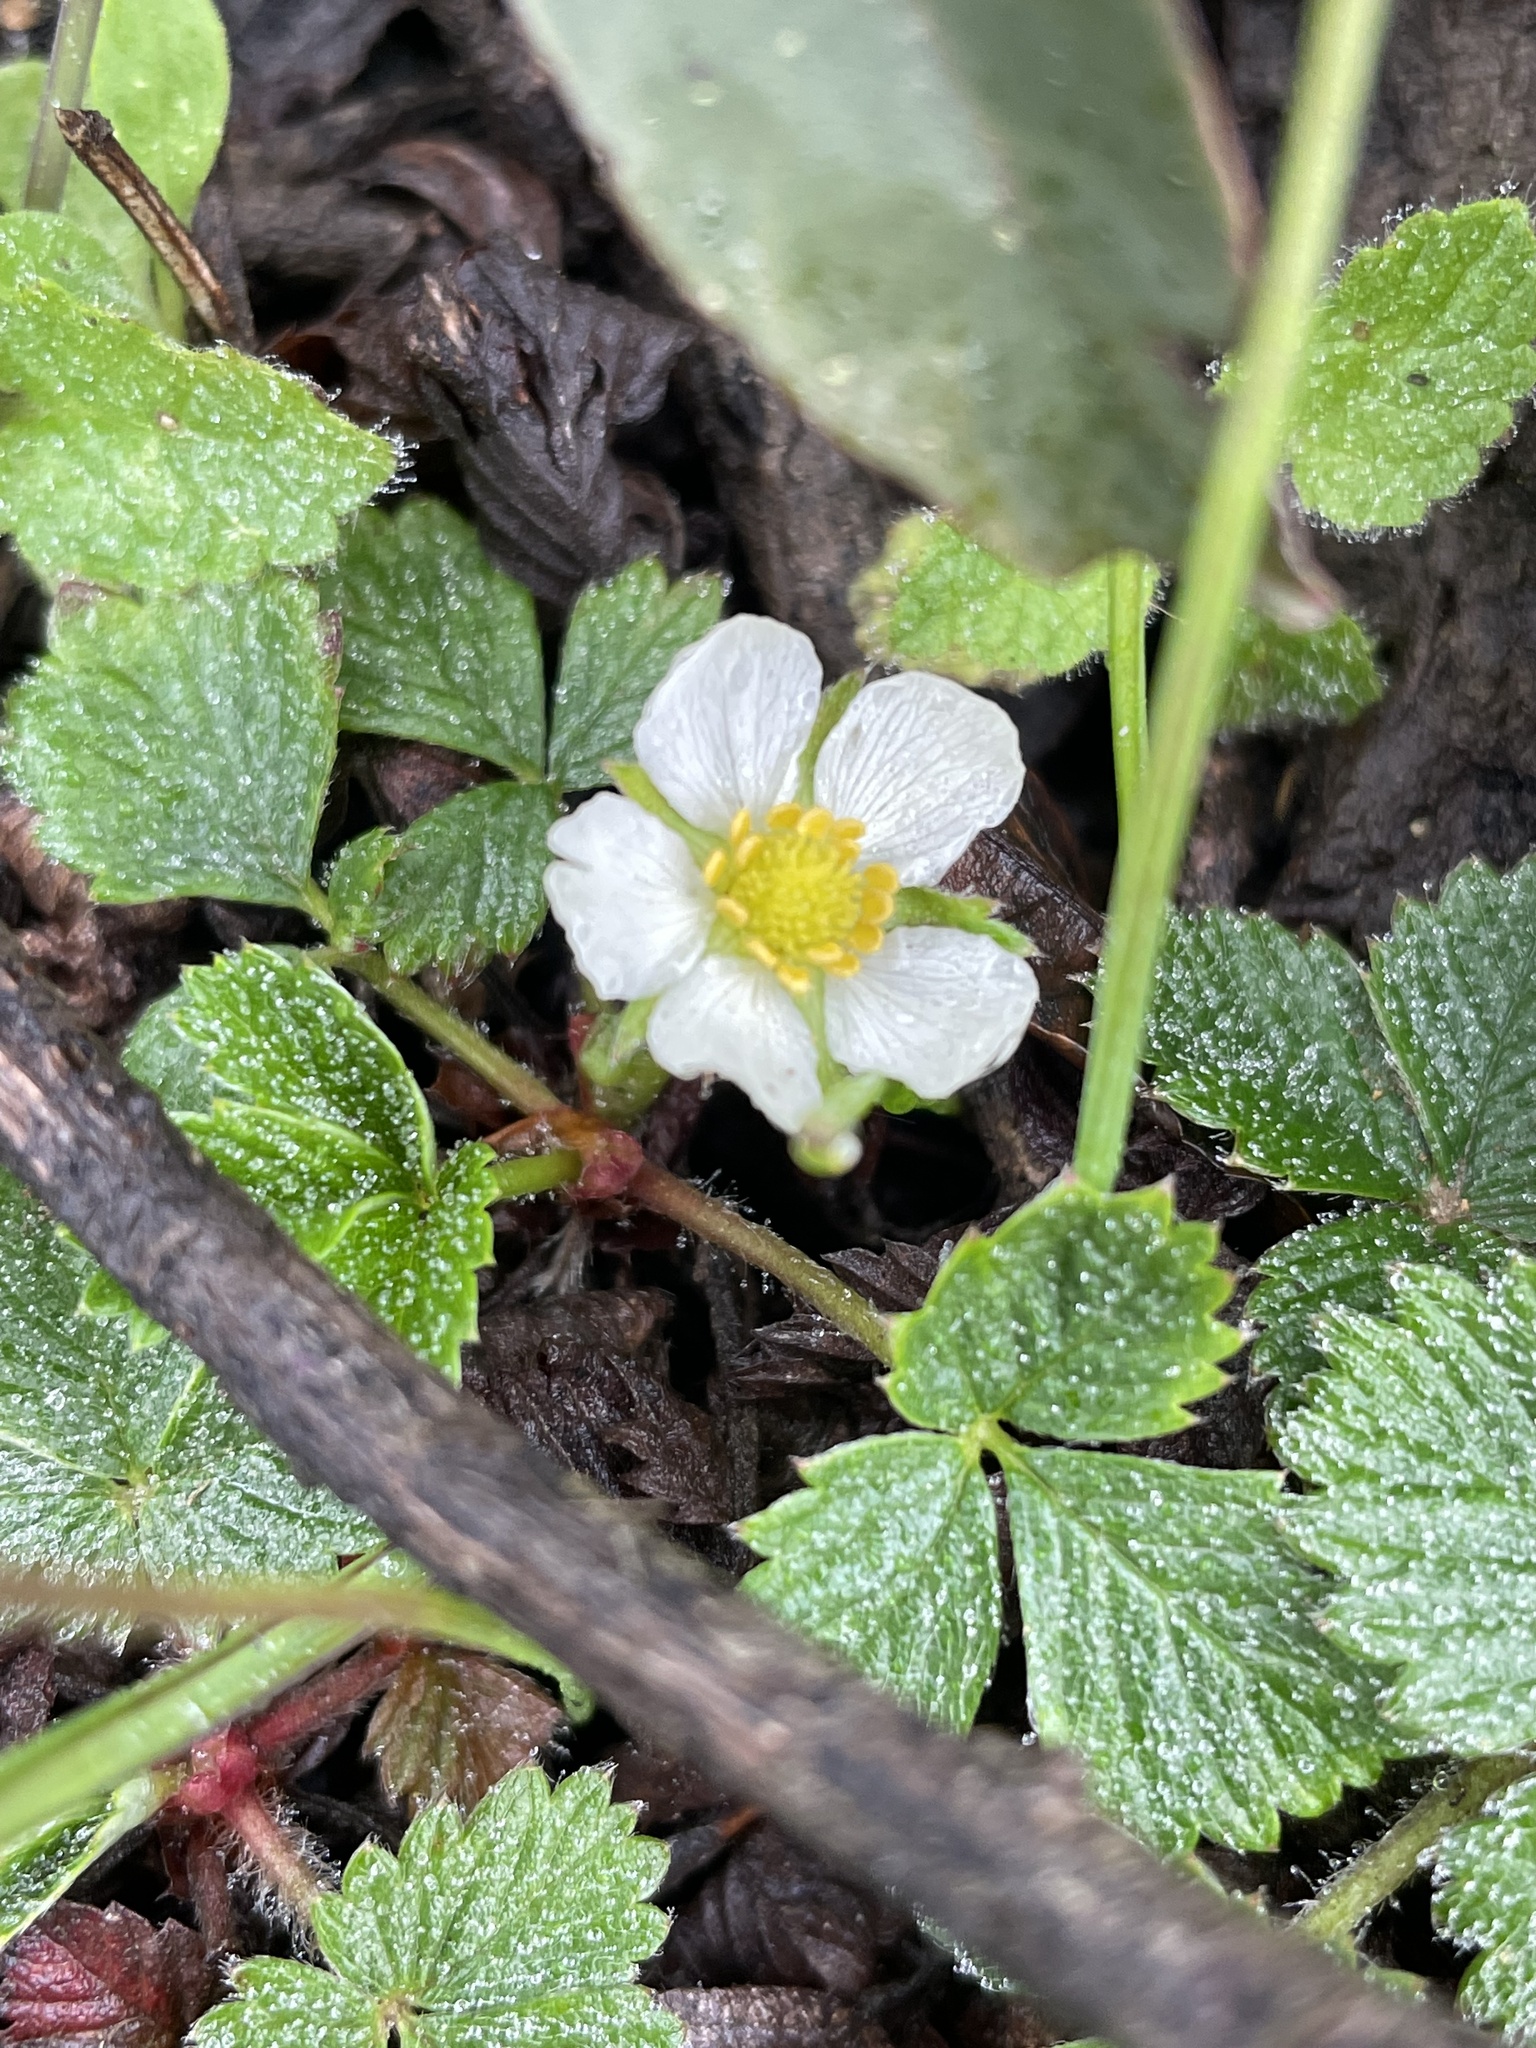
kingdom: Plantae
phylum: Tracheophyta
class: Magnoliopsida
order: Rosales
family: Rosaceae
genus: Fragaria
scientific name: Fragaria vesca
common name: Wild strawberry
